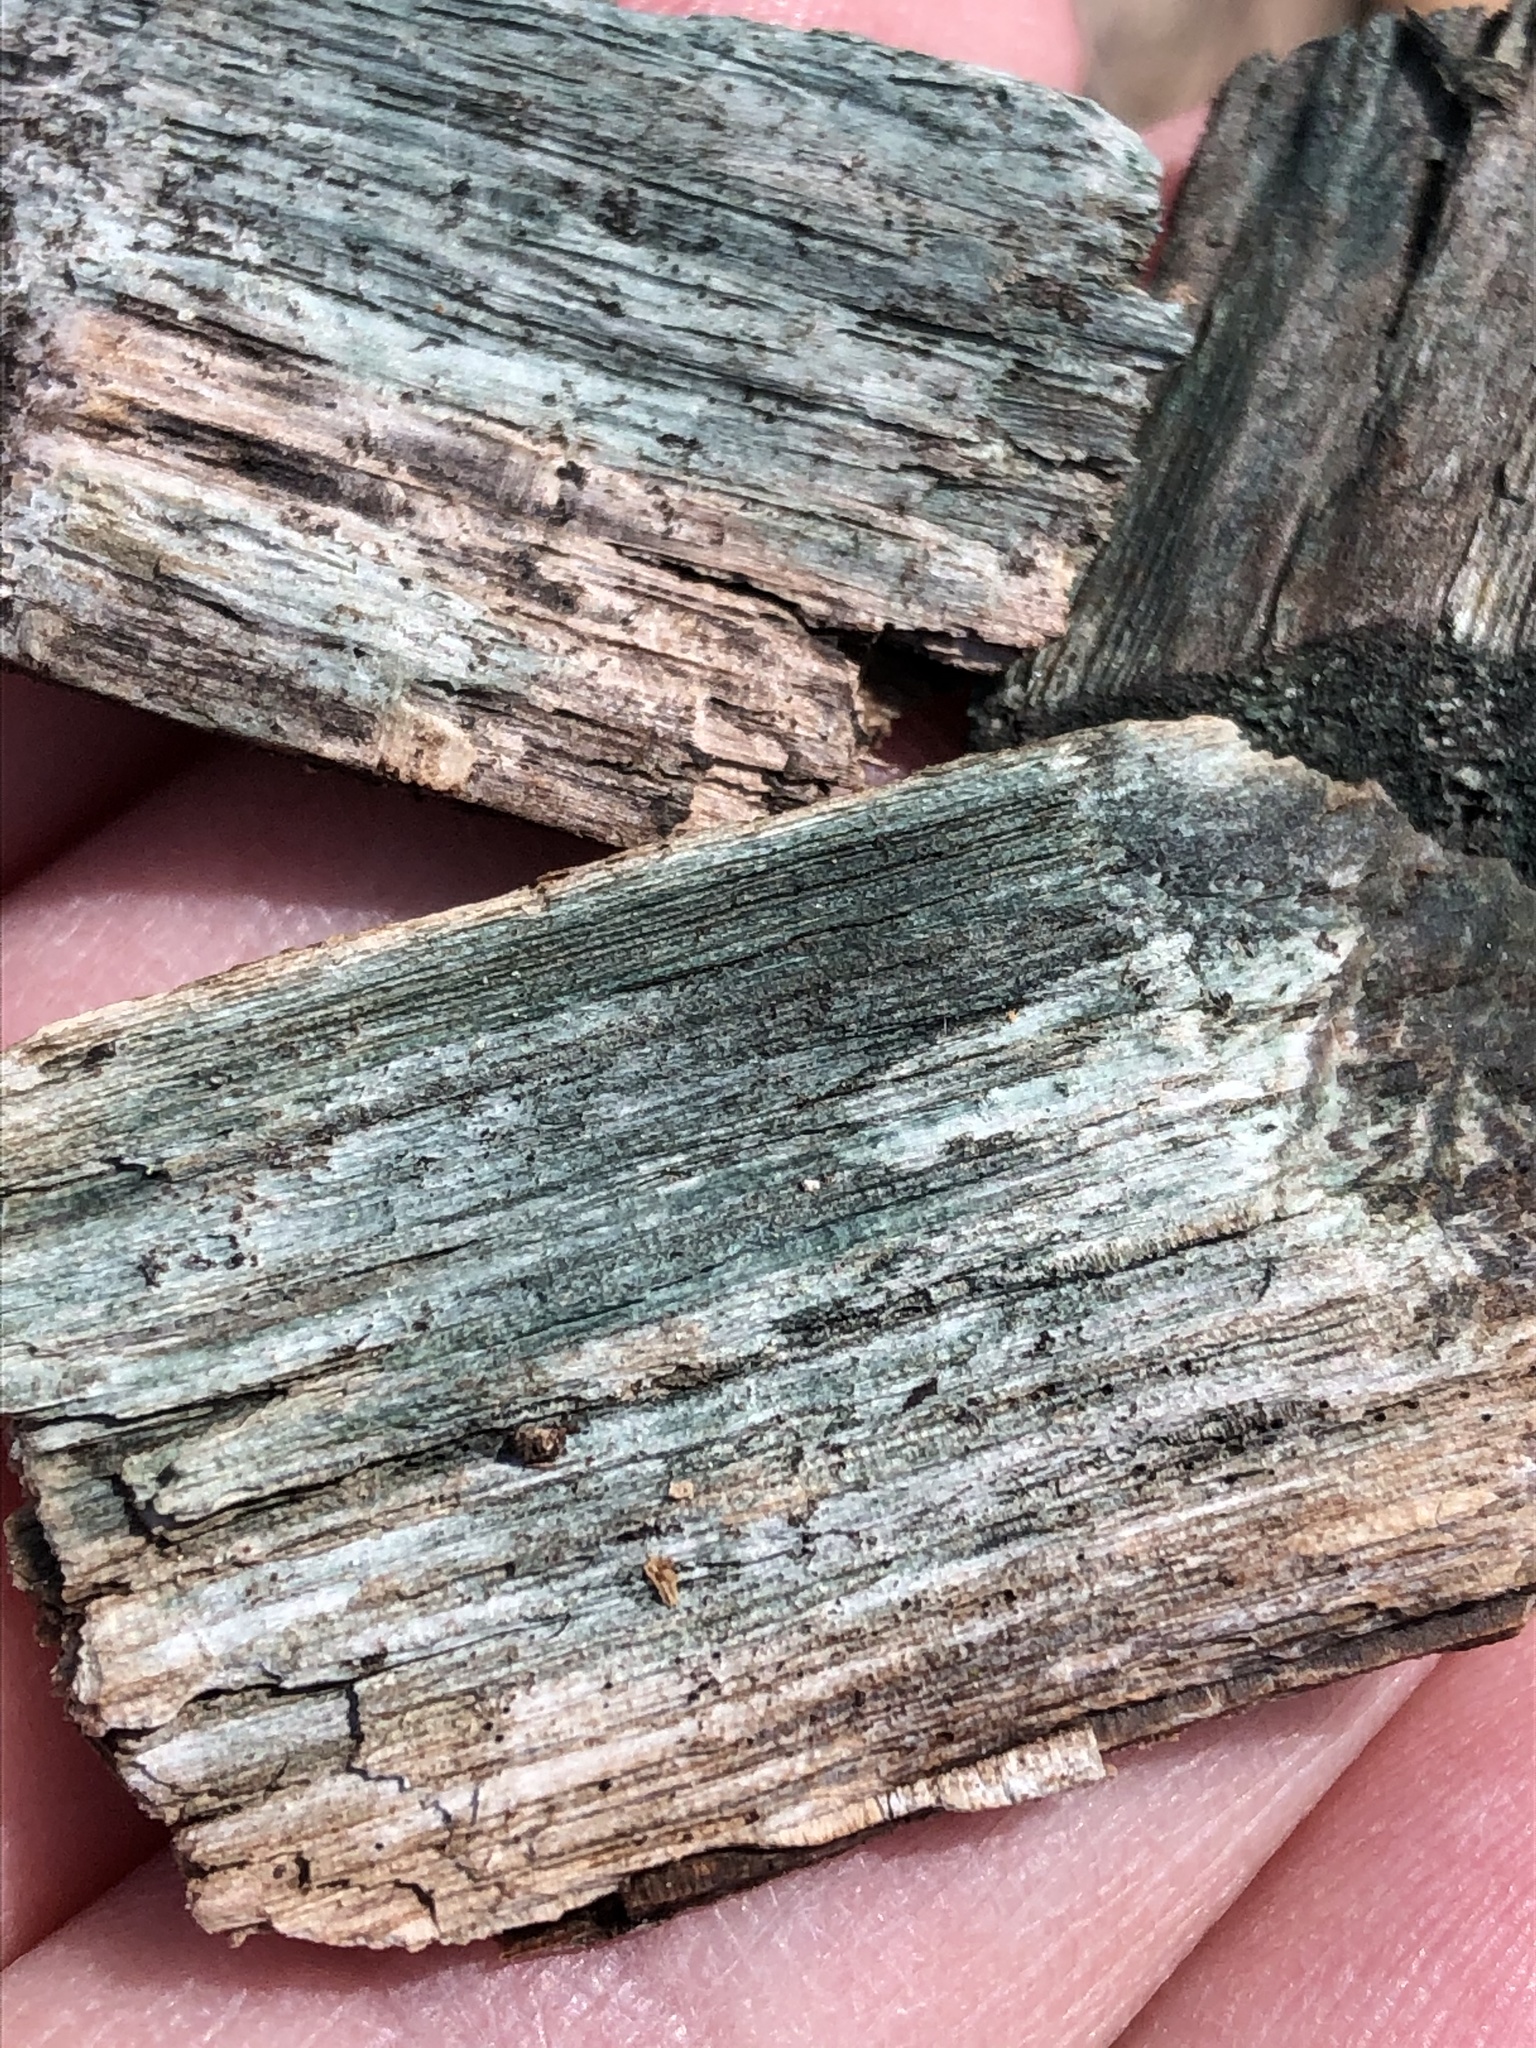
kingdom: Fungi
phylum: Ascomycota
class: Leotiomycetes
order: Helotiales
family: Chlorociboriaceae
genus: Chlorociboria
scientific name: Chlorociboria
